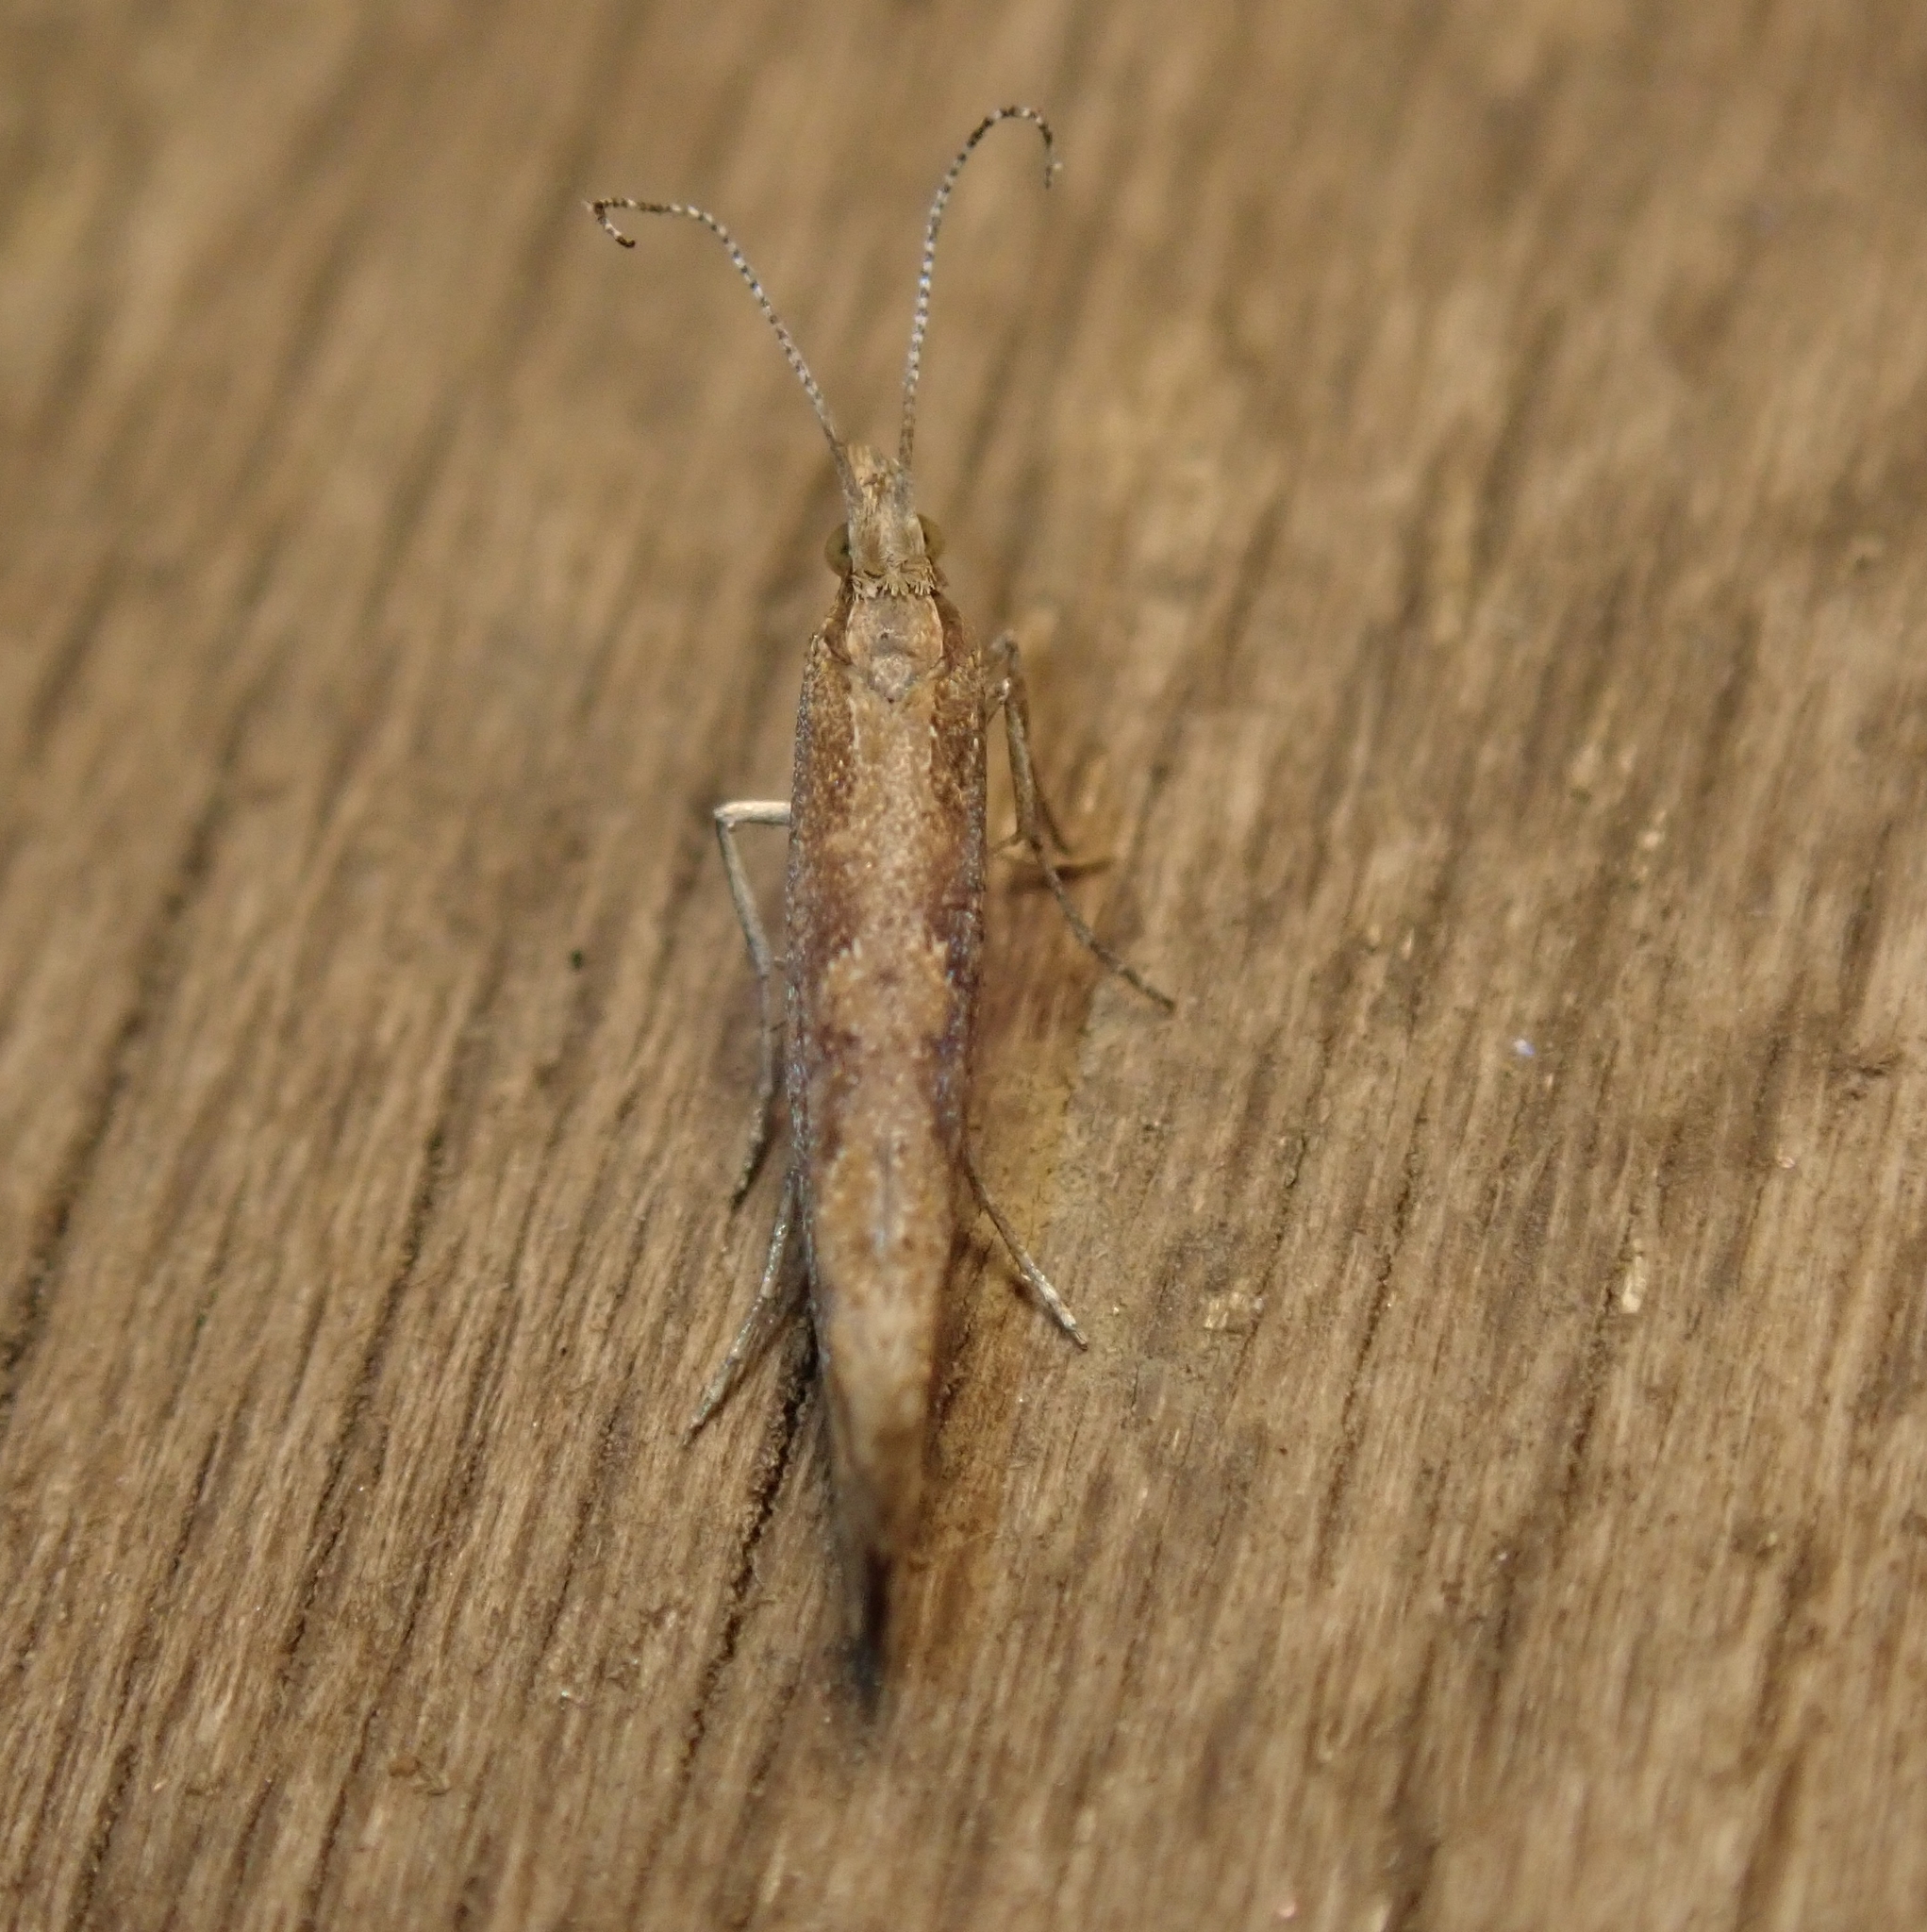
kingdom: Animalia
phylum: Arthropoda
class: Insecta
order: Lepidoptera
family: Plutellidae
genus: Plutella
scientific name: Plutella xylostella
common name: Diamond-back moth
